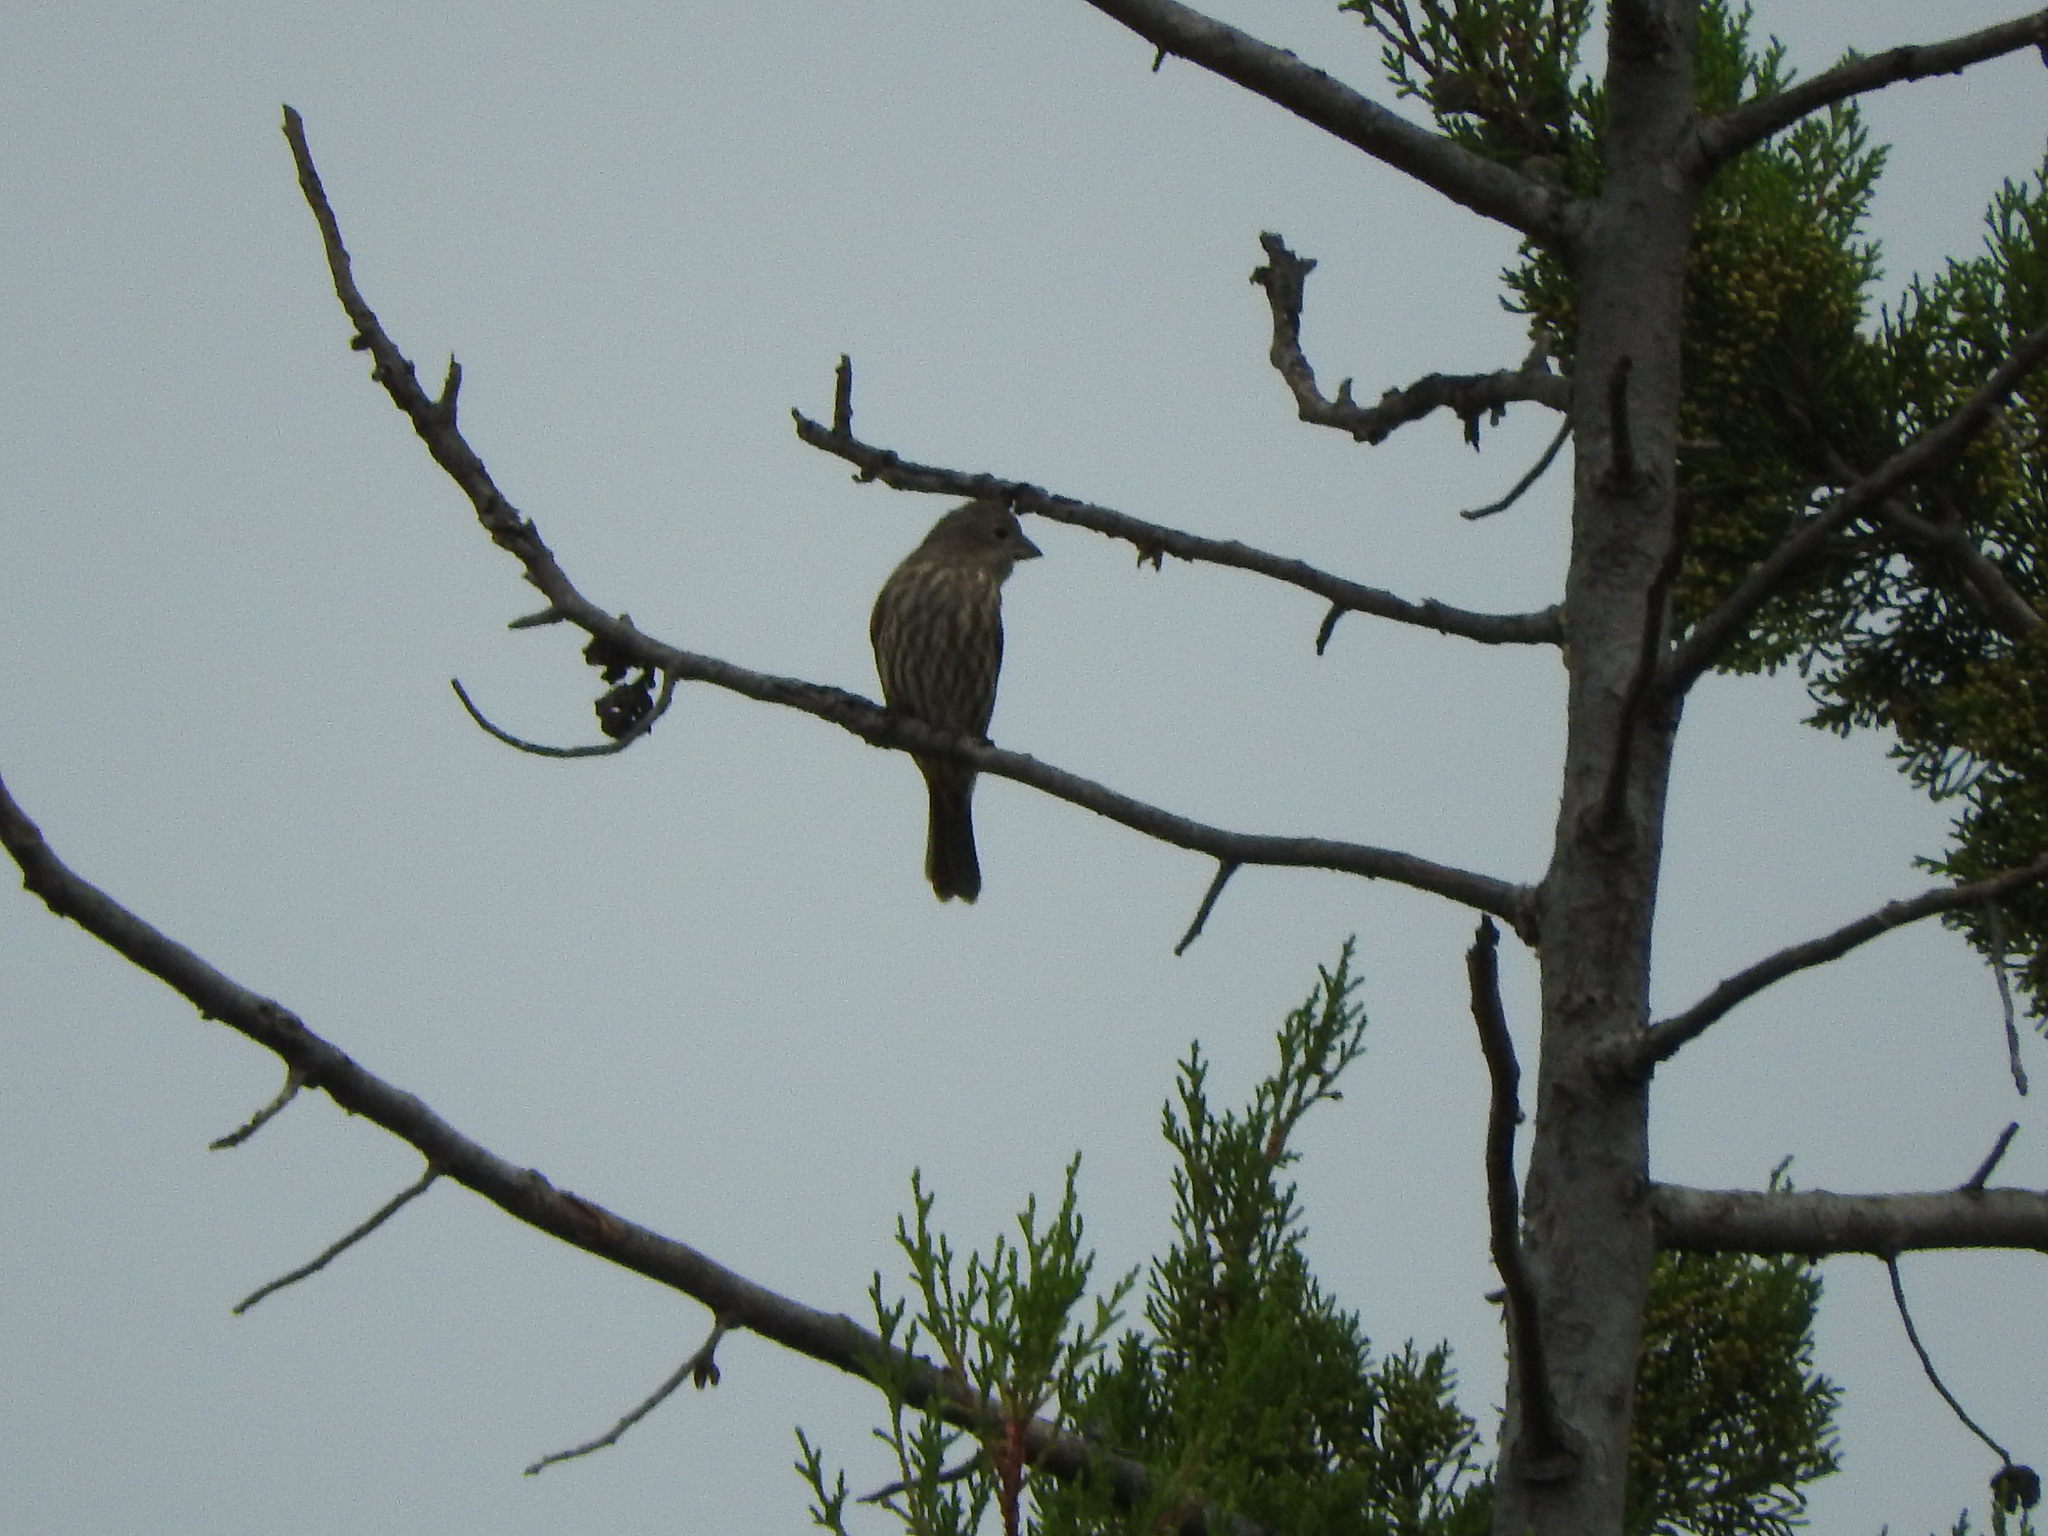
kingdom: Animalia
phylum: Chordata
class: Aves
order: Passeriformes
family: Fringillidae
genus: Haemorhous
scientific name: Haemorhous mexicanus
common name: House finch
